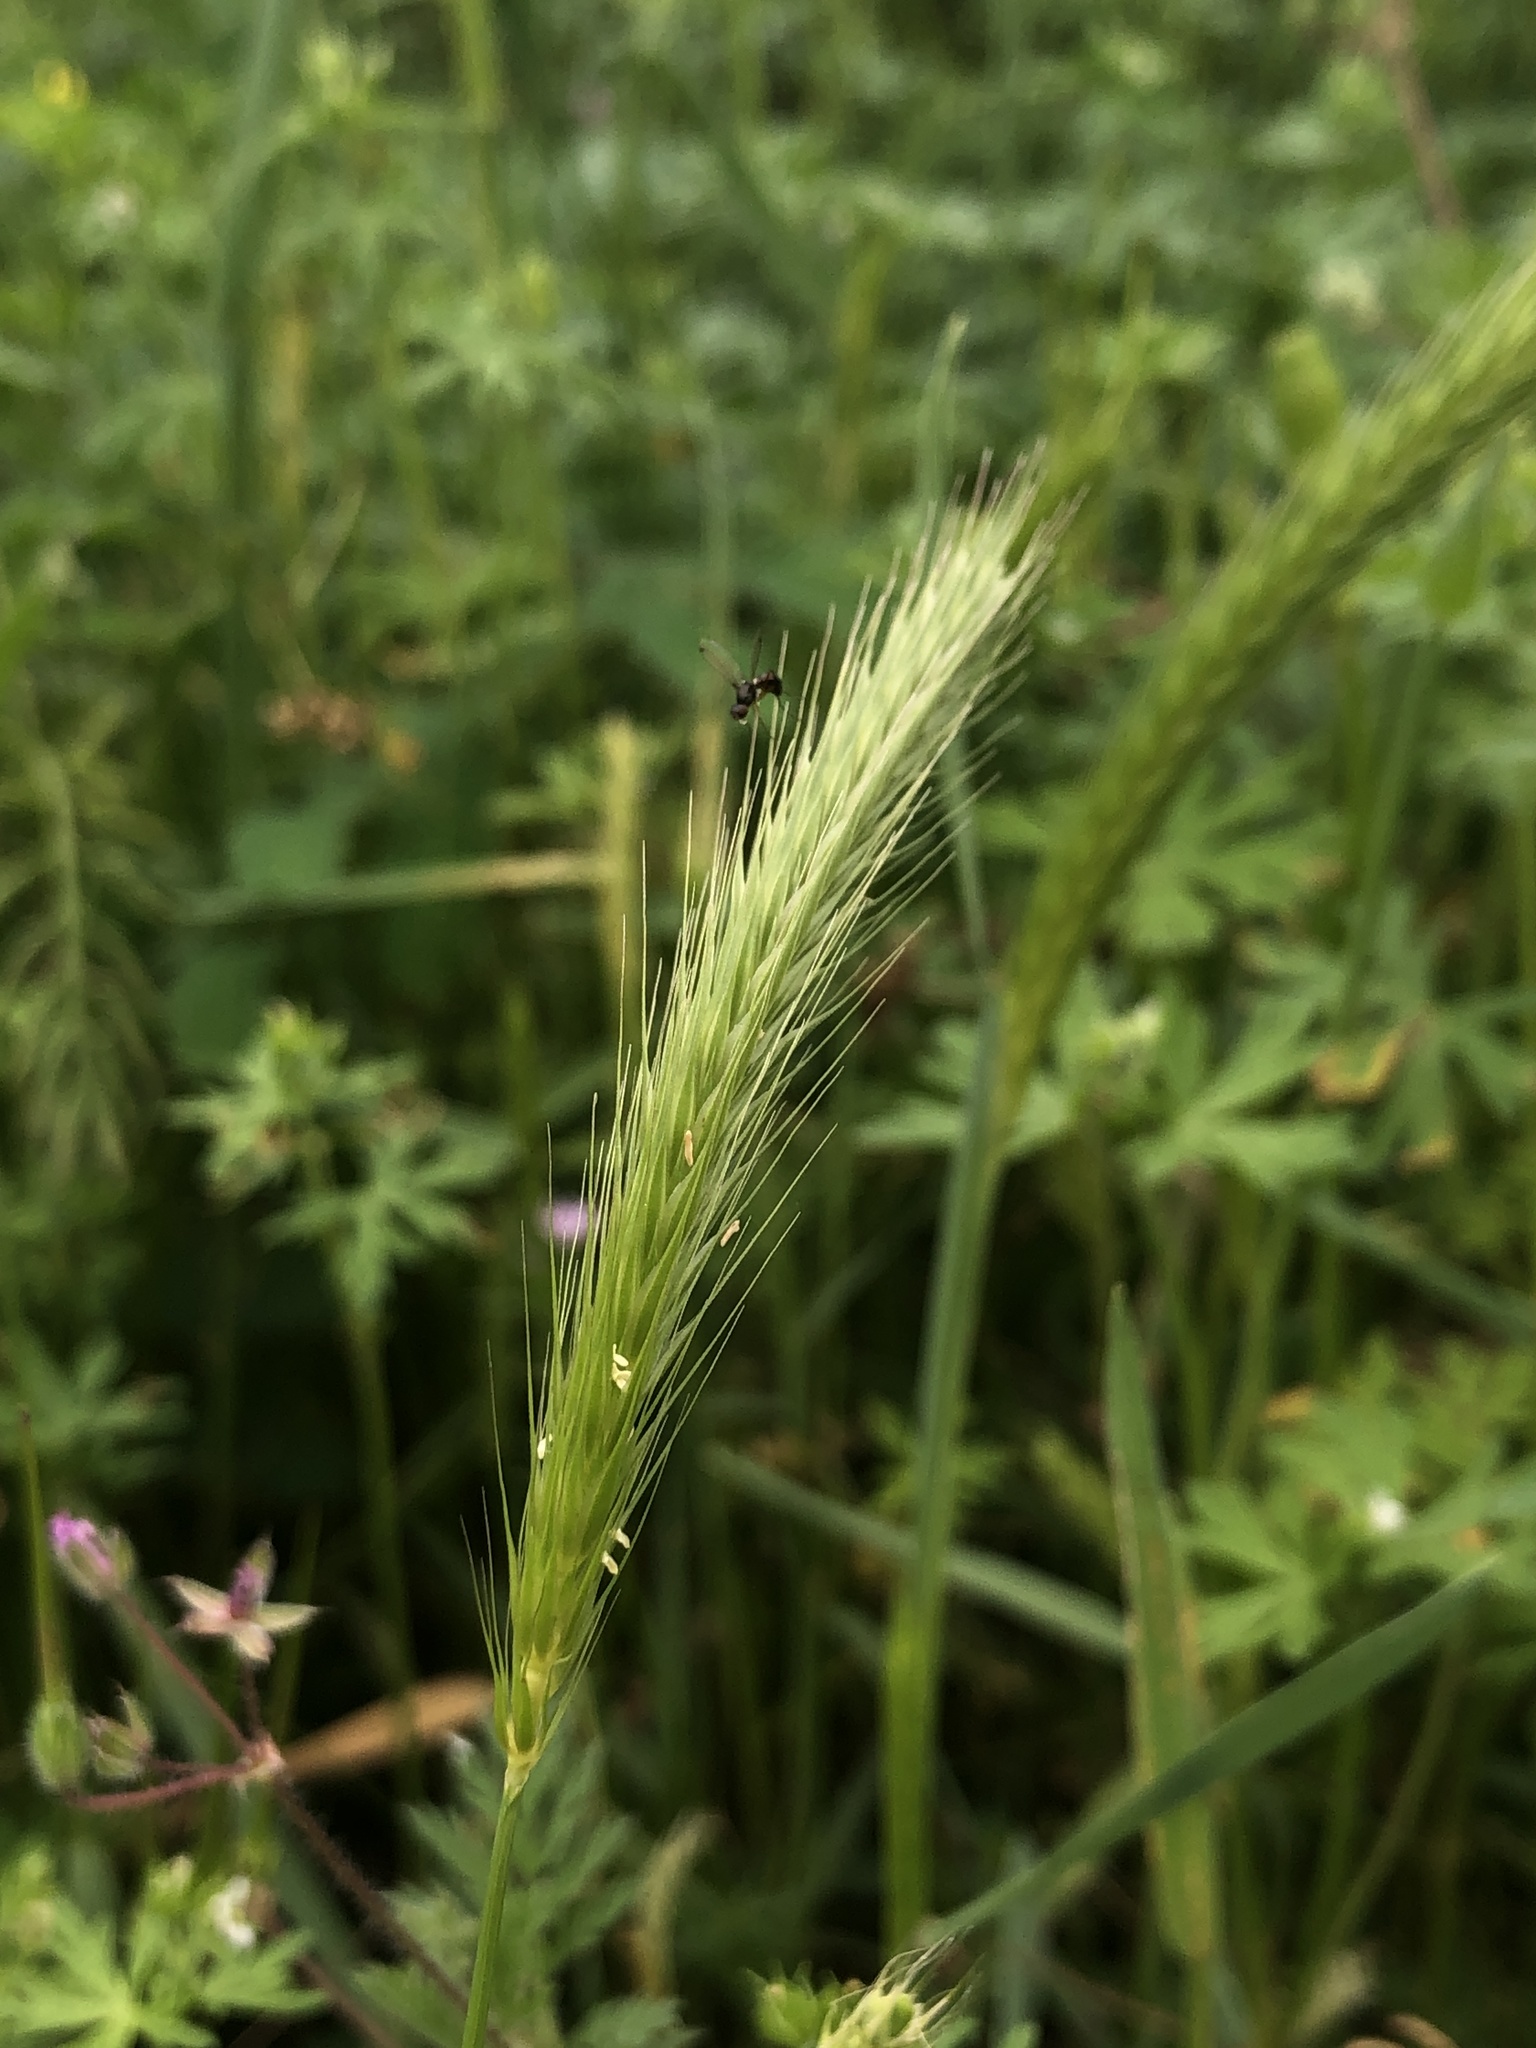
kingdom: Plantae
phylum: Tracheophyta
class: Liliopsida
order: Poales
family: Poaceae
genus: Hordeum
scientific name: Hordeum pusillum
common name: Little barley
